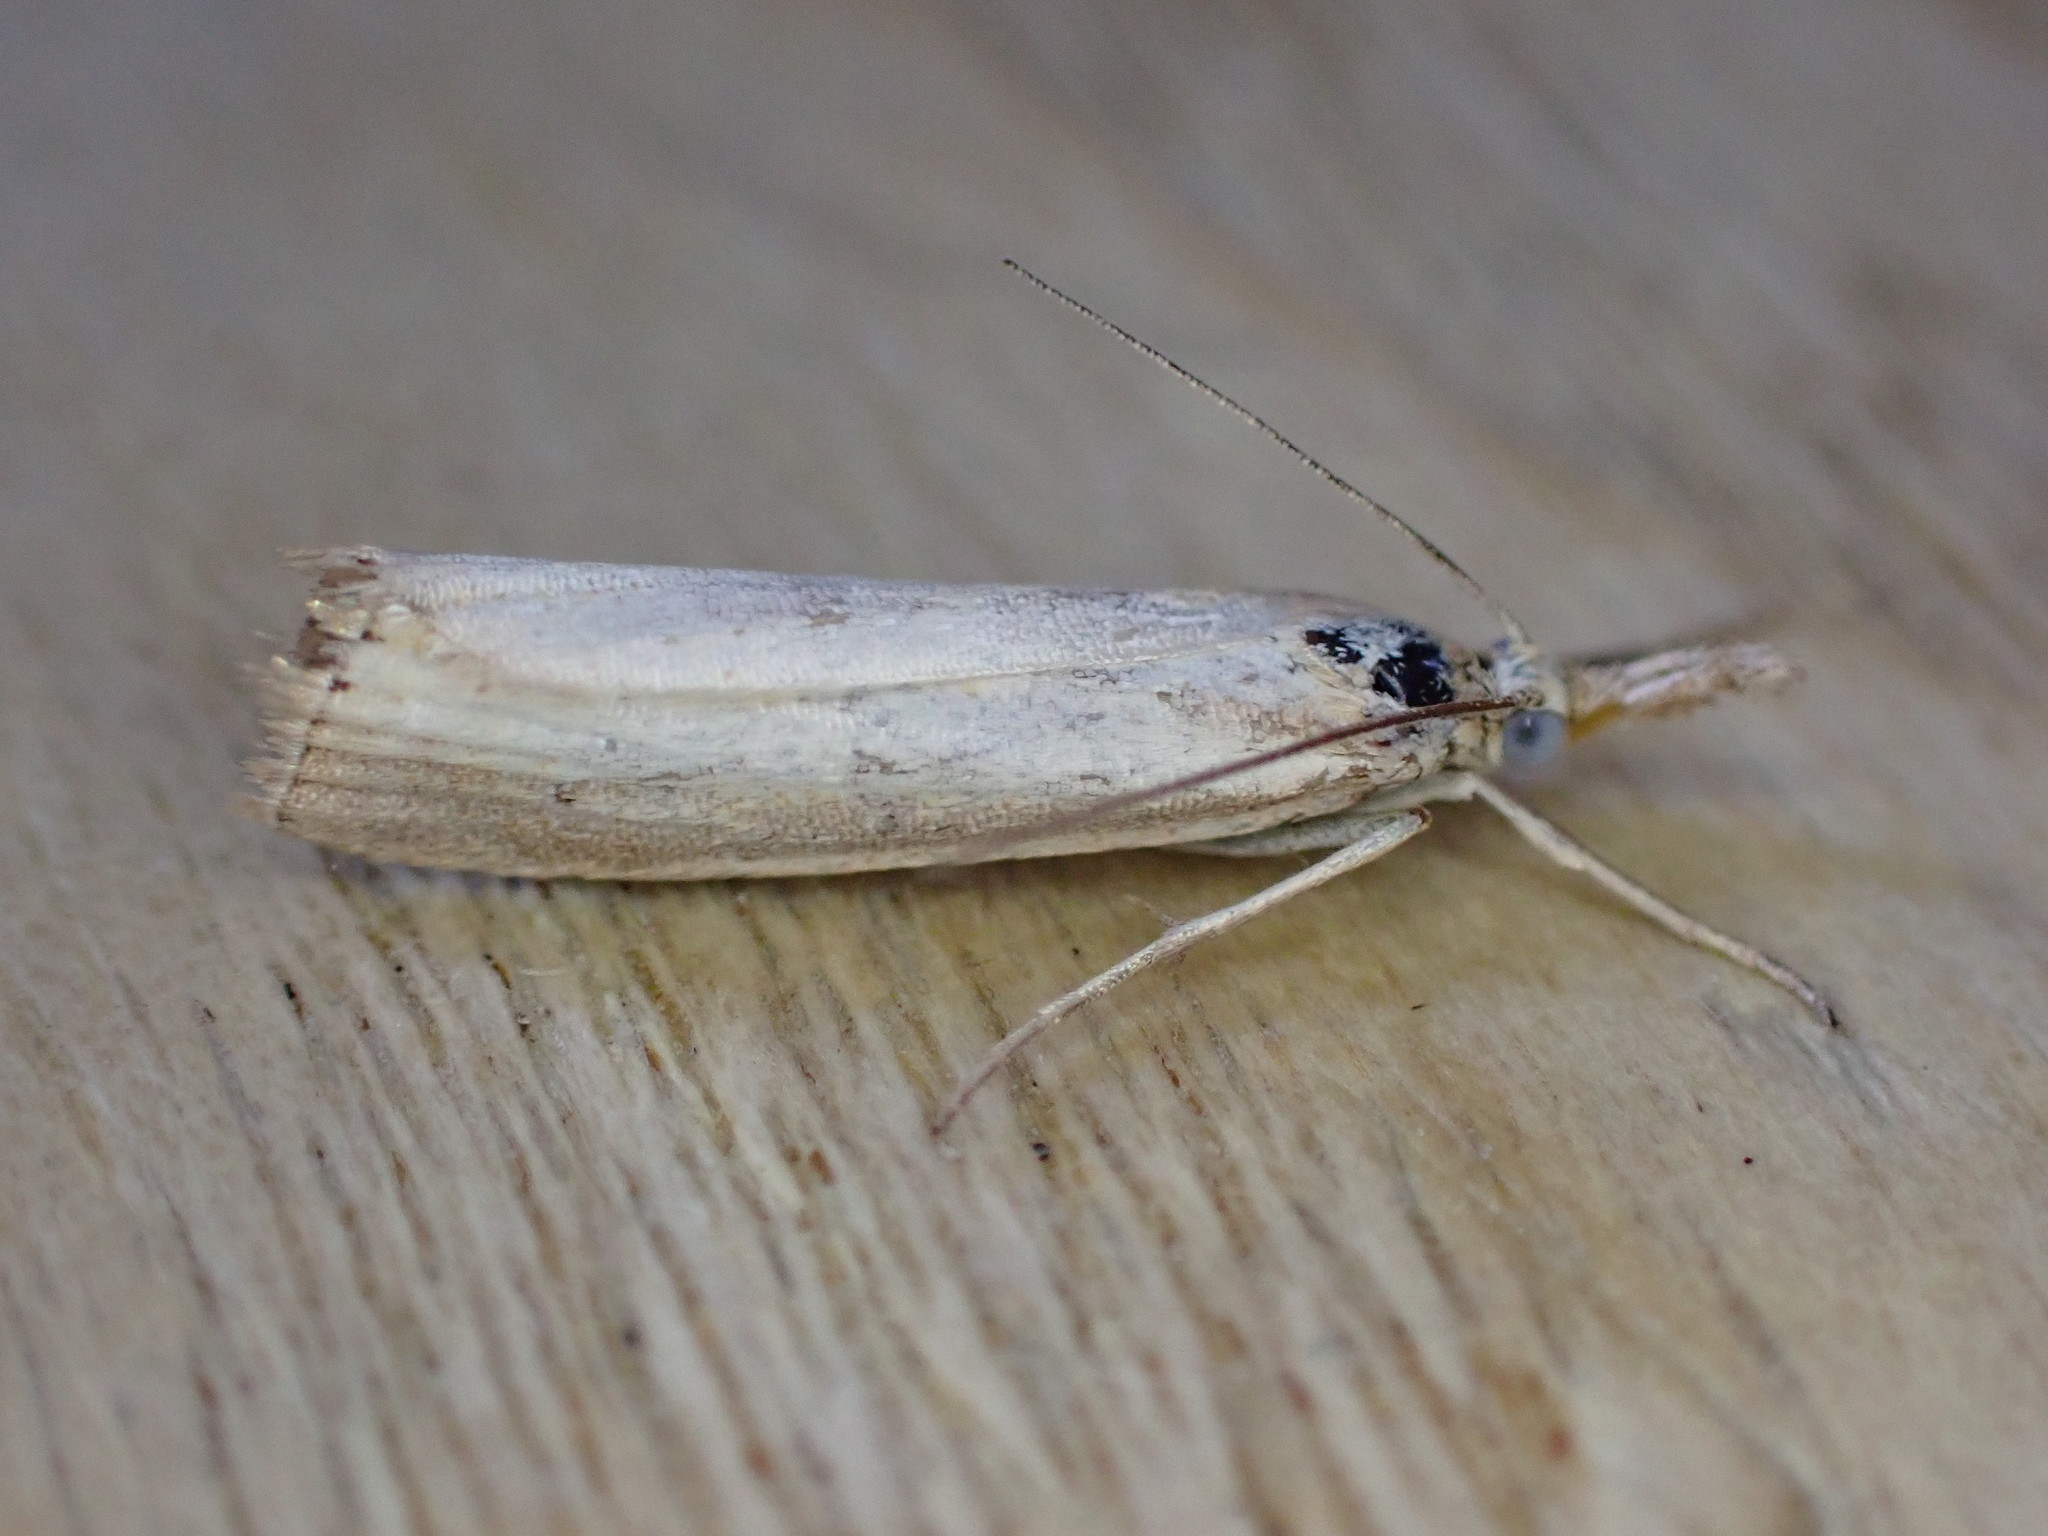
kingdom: Animalia
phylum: Arthropoda
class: Insecta
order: Lepidoptera
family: Crambidae
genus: Agriphila
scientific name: Agriphila straminella
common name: Straw grass-veneer
